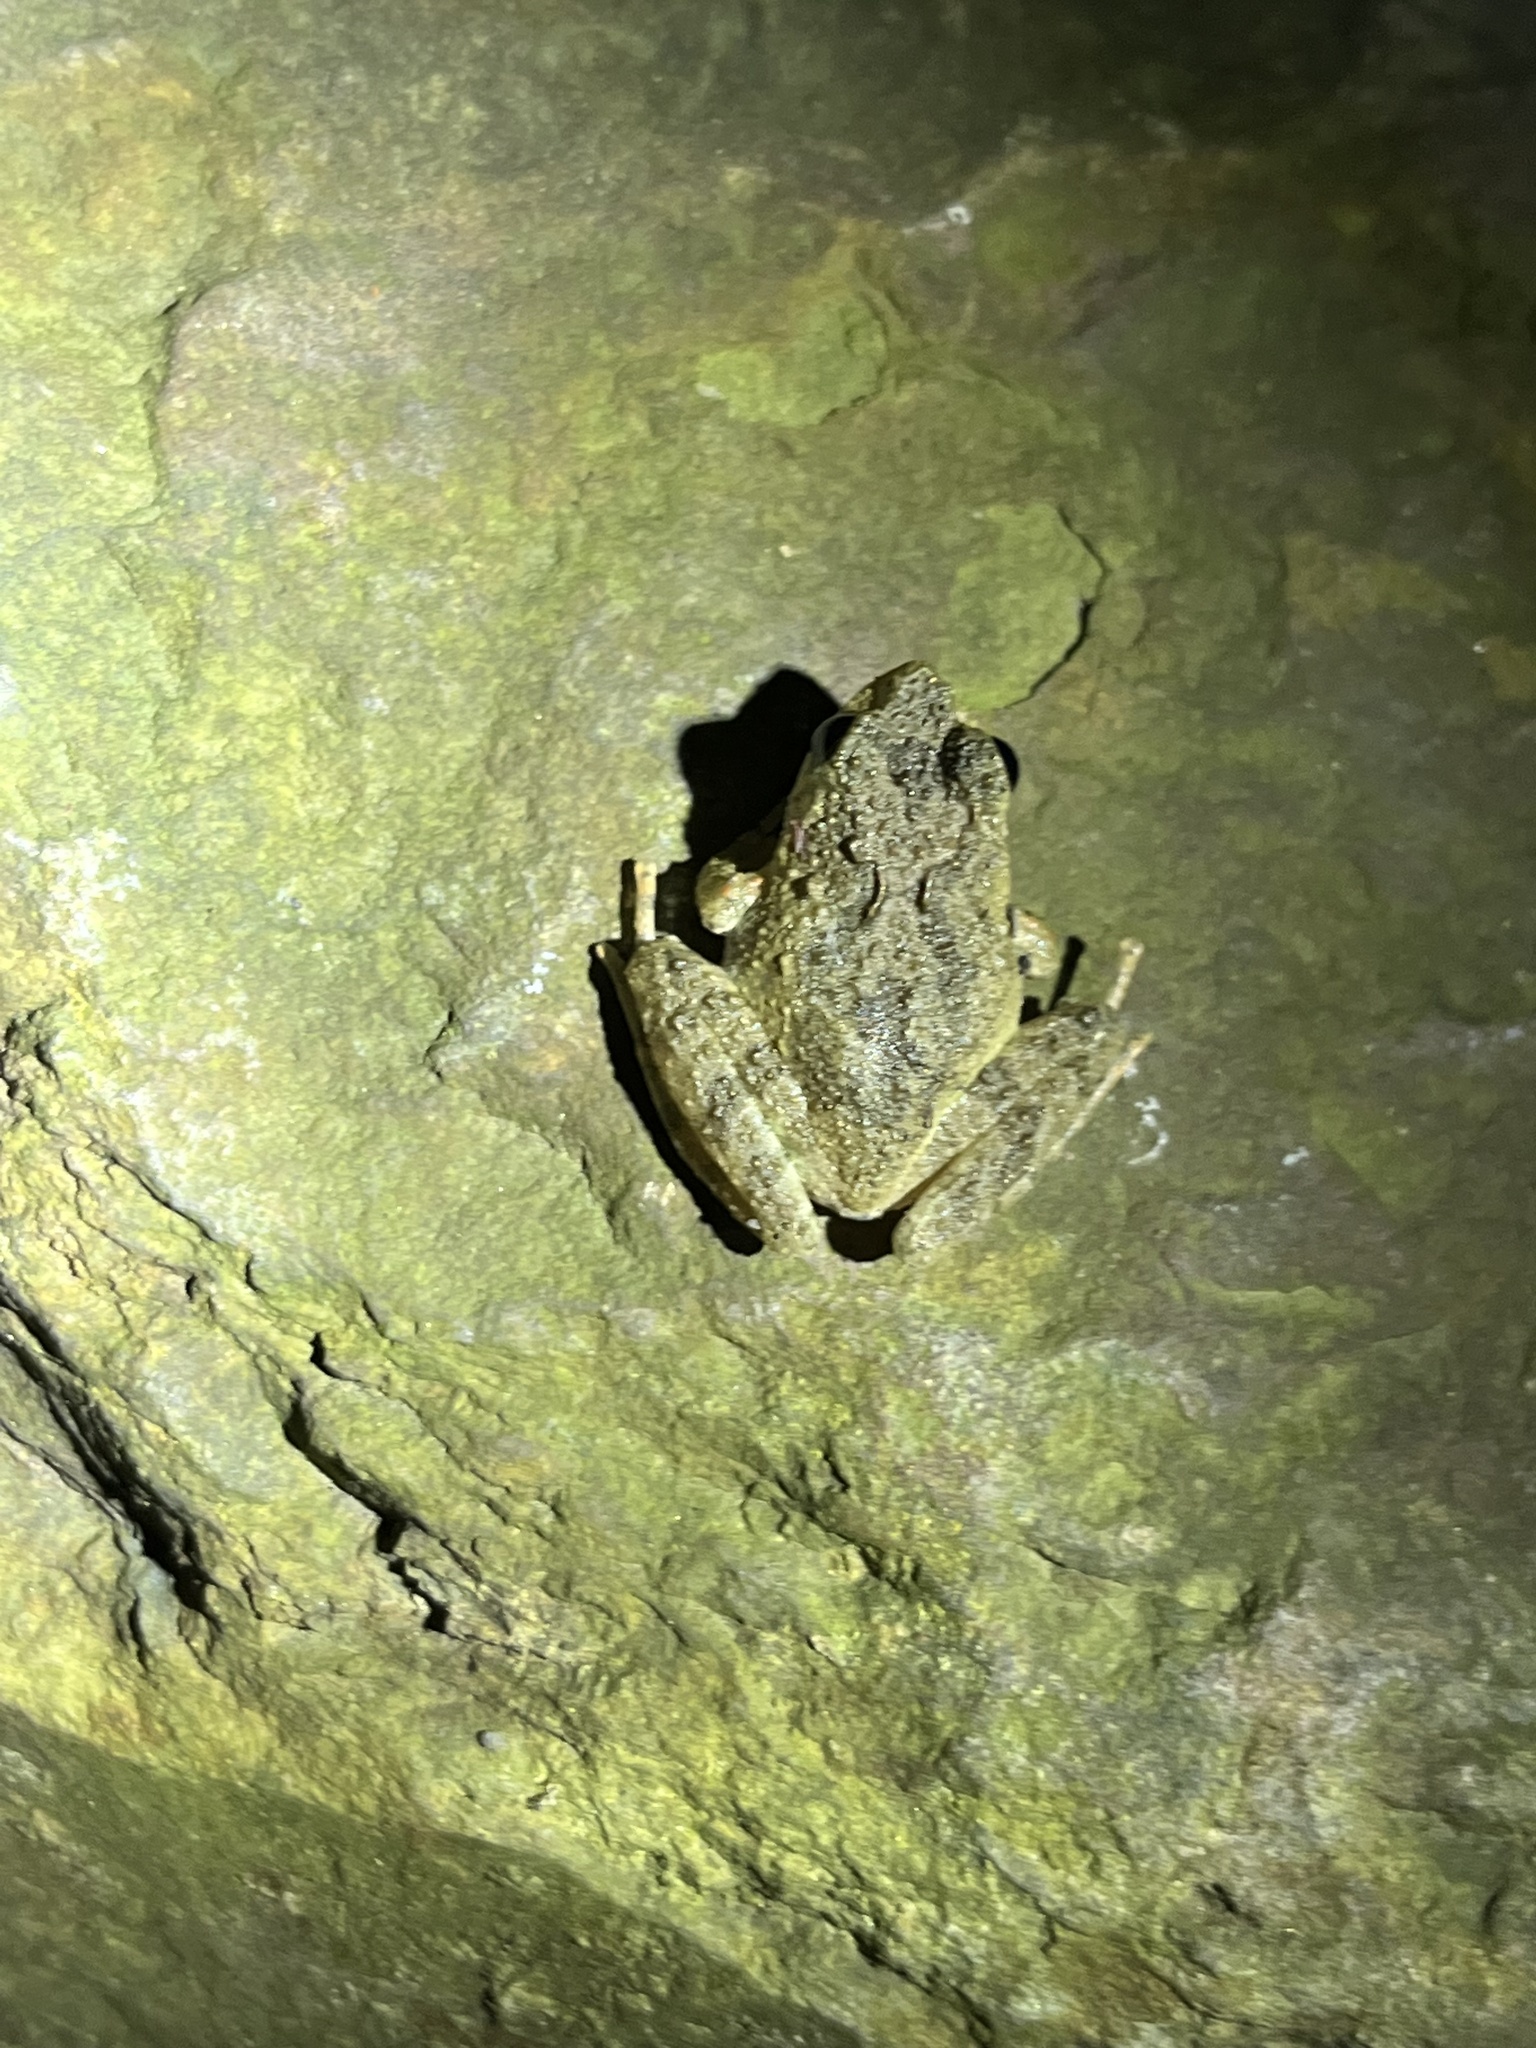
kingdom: Animalia
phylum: Chordata
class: Amphibia
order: Anura
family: Rhacophoridae
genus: Buergeria
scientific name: Buergeria choui
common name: Yaeyama kajika frog
